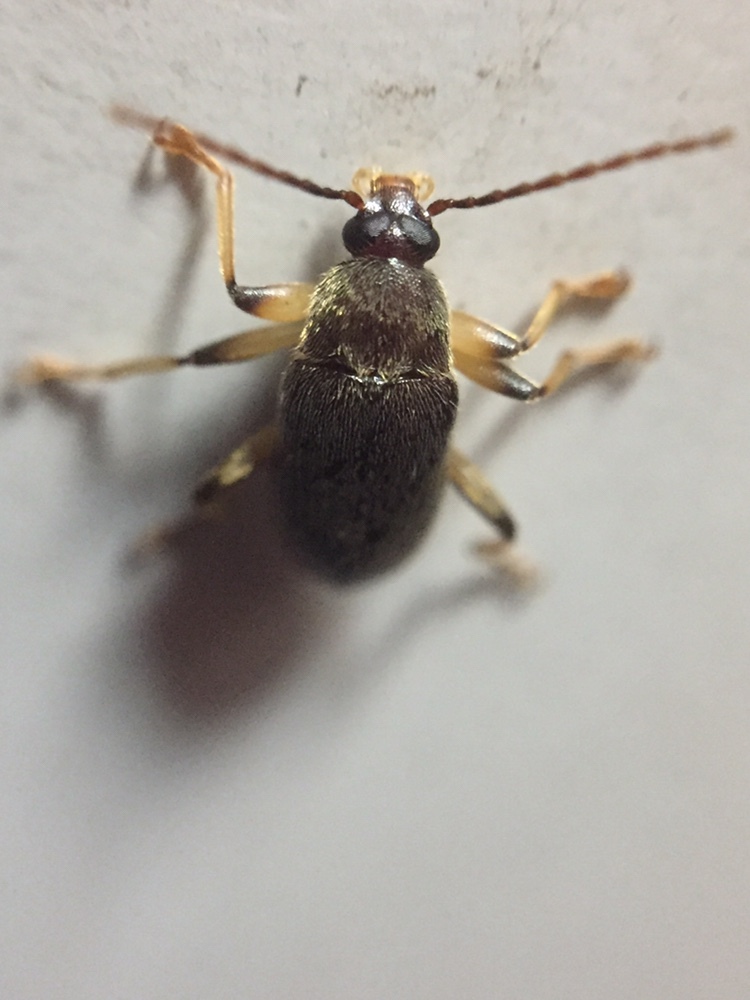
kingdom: Animalia
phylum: Arthropoda
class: Insecta
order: Coleoptera
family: Tenebrionidae
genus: Homotrysis
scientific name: Homotrysis
